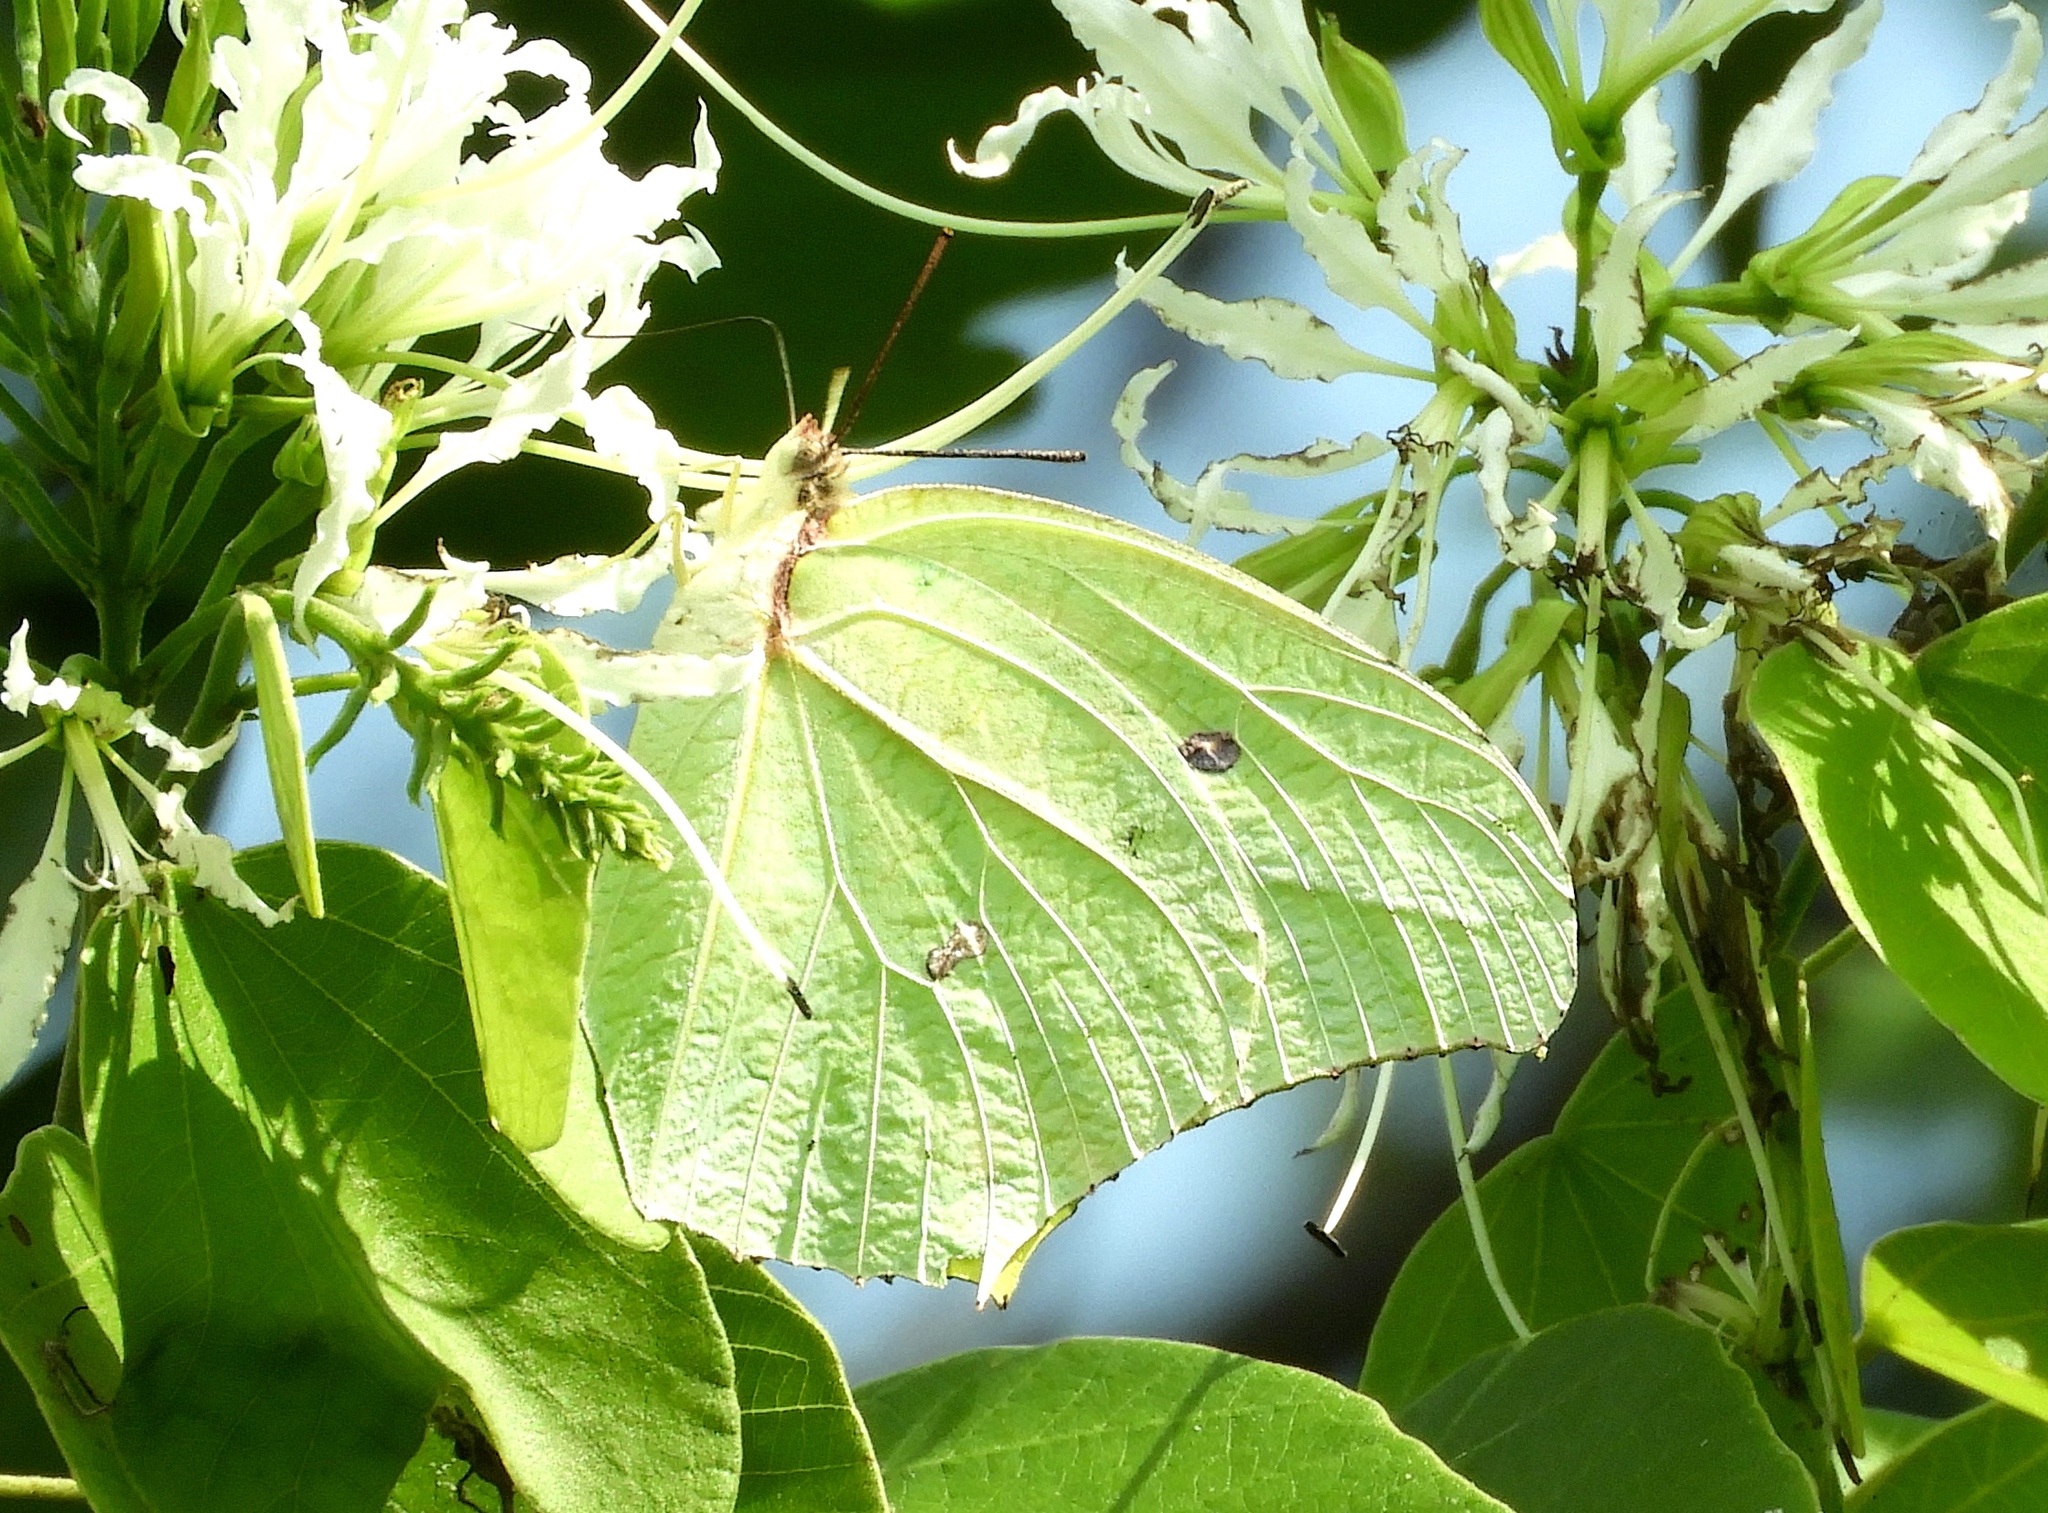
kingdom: Animalia
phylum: Arthropoda
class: Insecta
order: Lepidoptera
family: Pieridae
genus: Anteos
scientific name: Anteos maerula
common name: Angled sulphur
